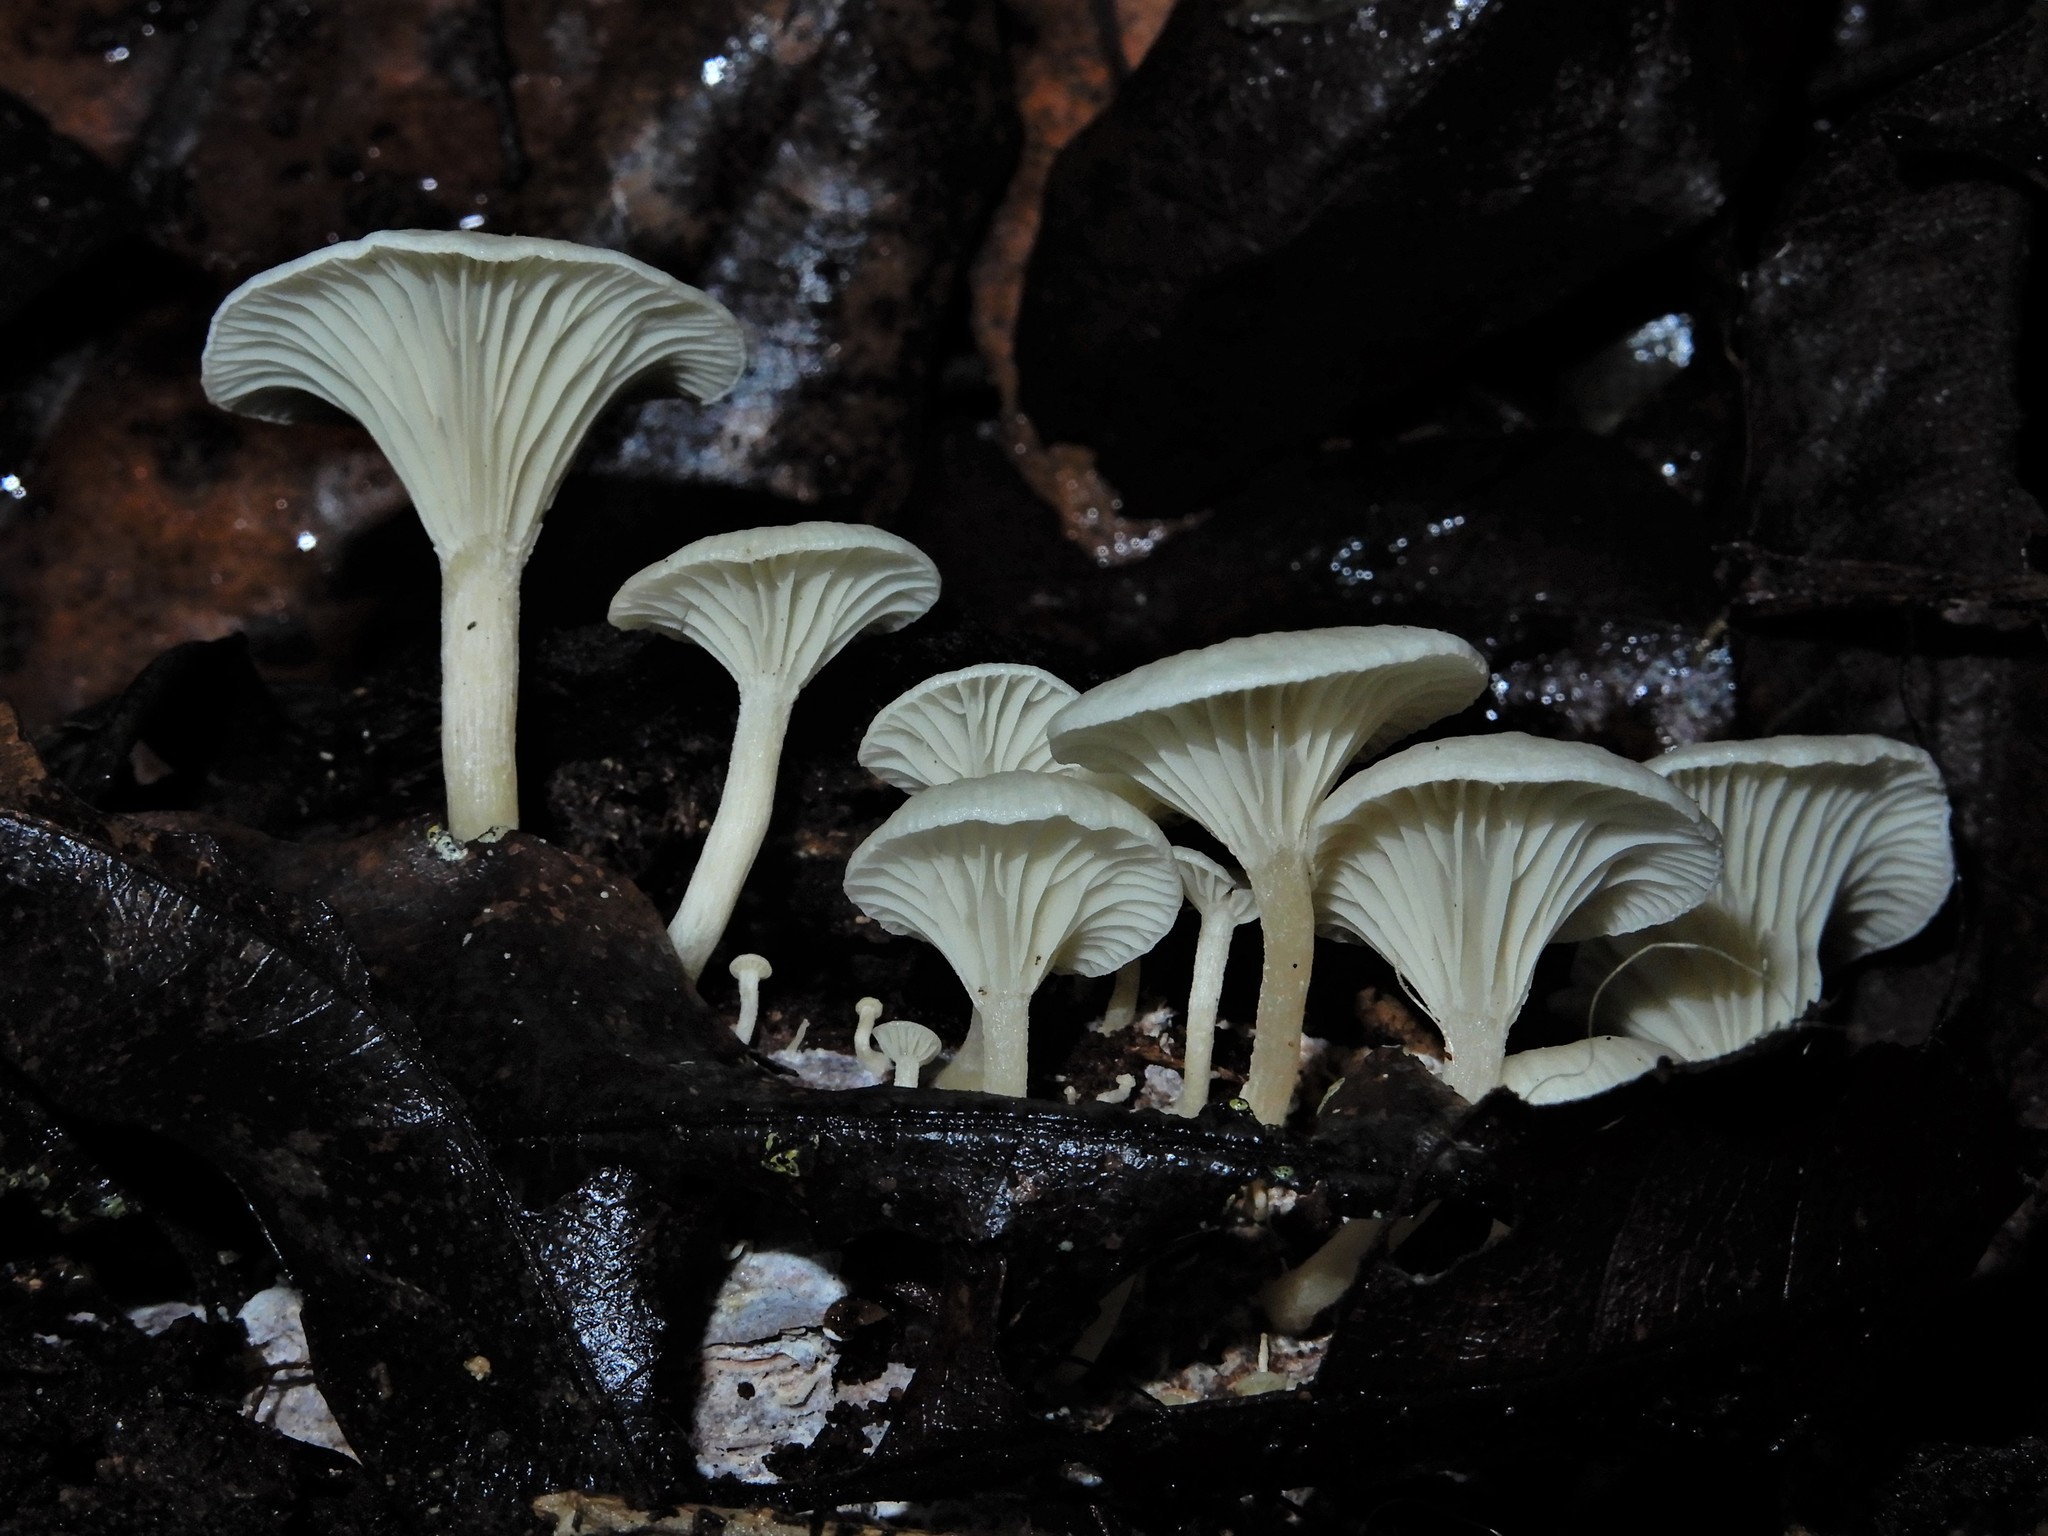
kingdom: Fungi
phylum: Basidiomycota
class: Agaricomycetes
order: Agaricales
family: Tricholomataceae
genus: Rhizocybe
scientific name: Rhizocybe albida
